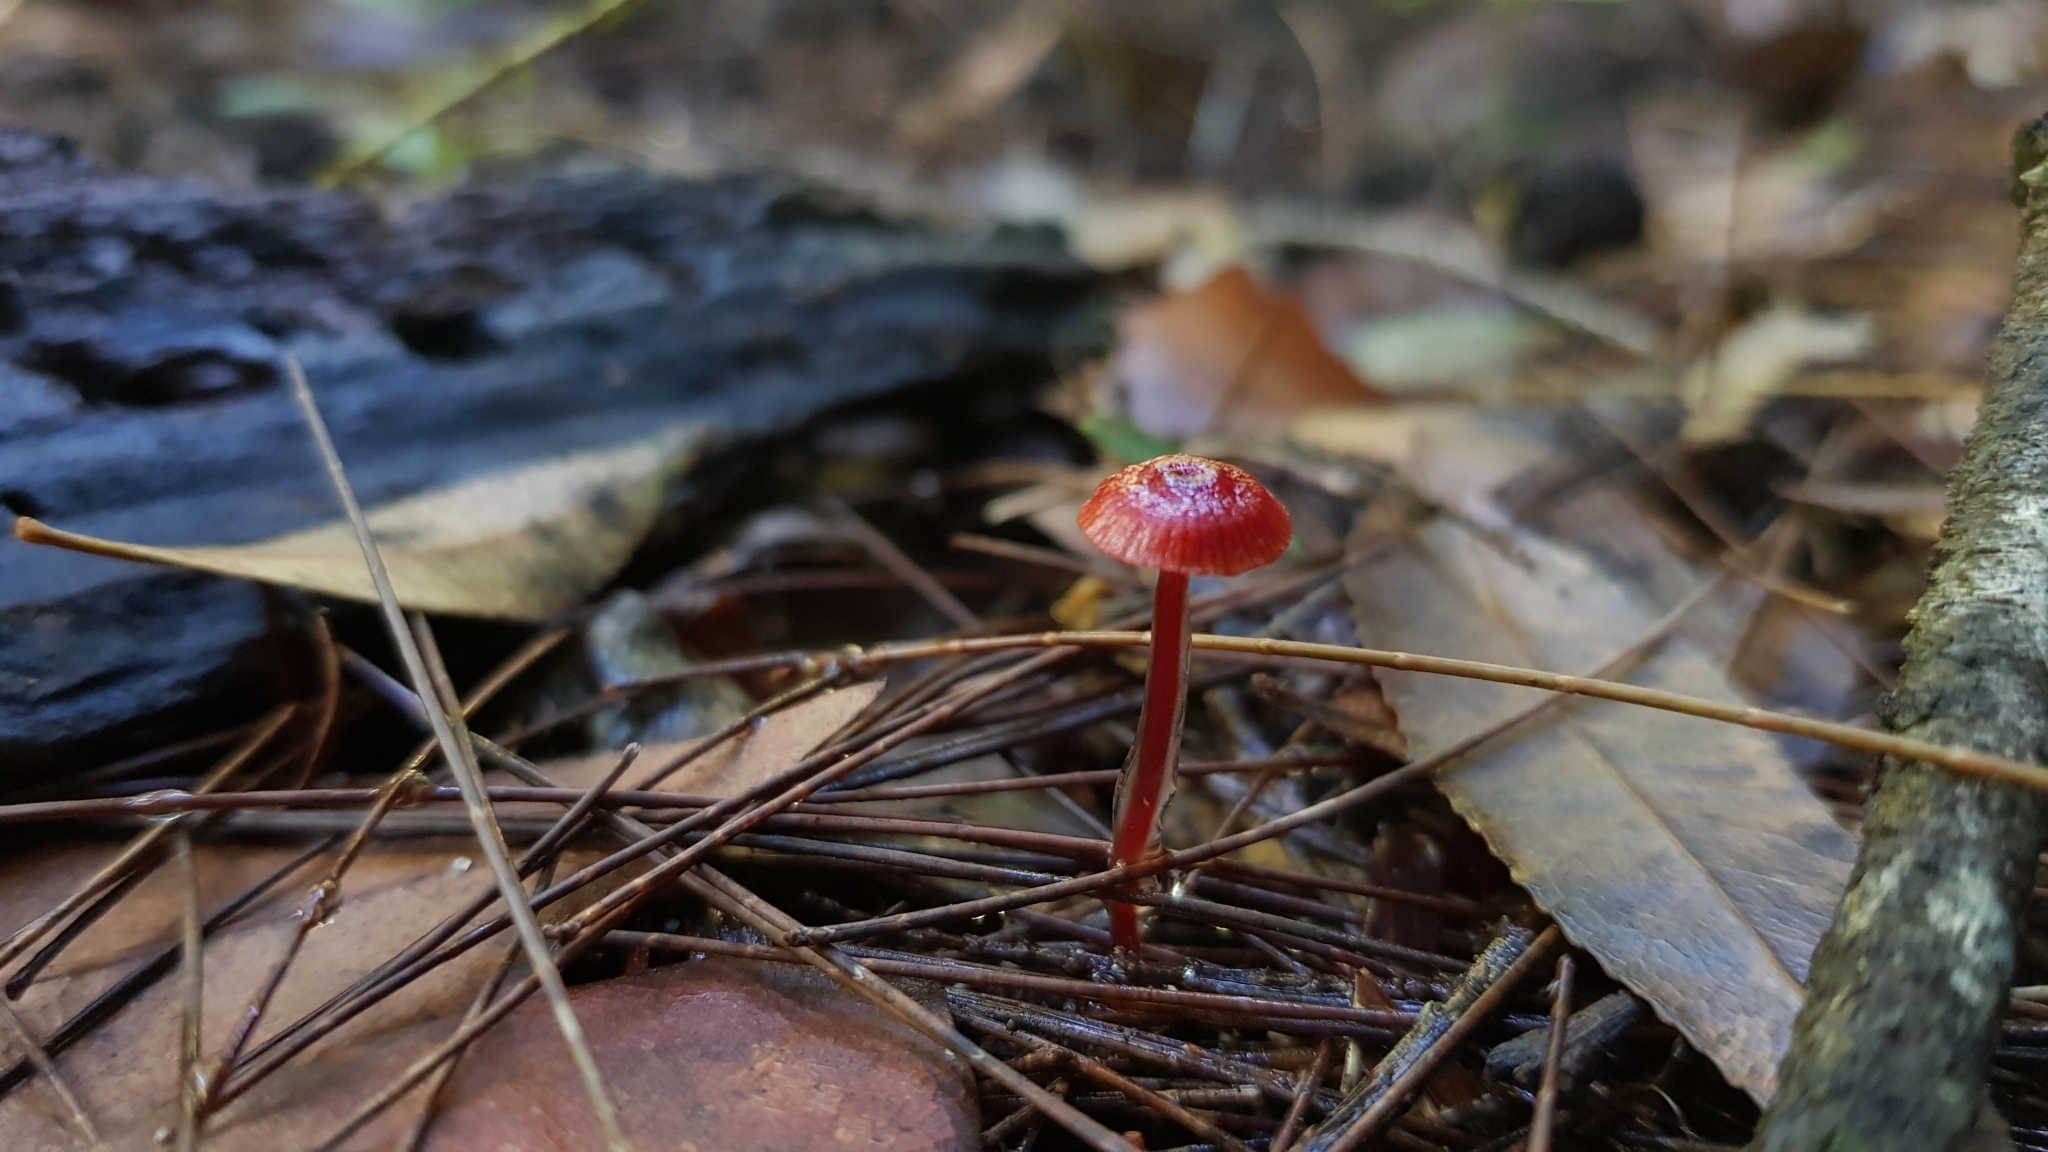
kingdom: Fungi
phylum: Basidiomycota
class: Agaricomycetes
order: Agaricales
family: Mycenaceae
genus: Cruentomycena
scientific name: Cruentomycena viscidocruenta
